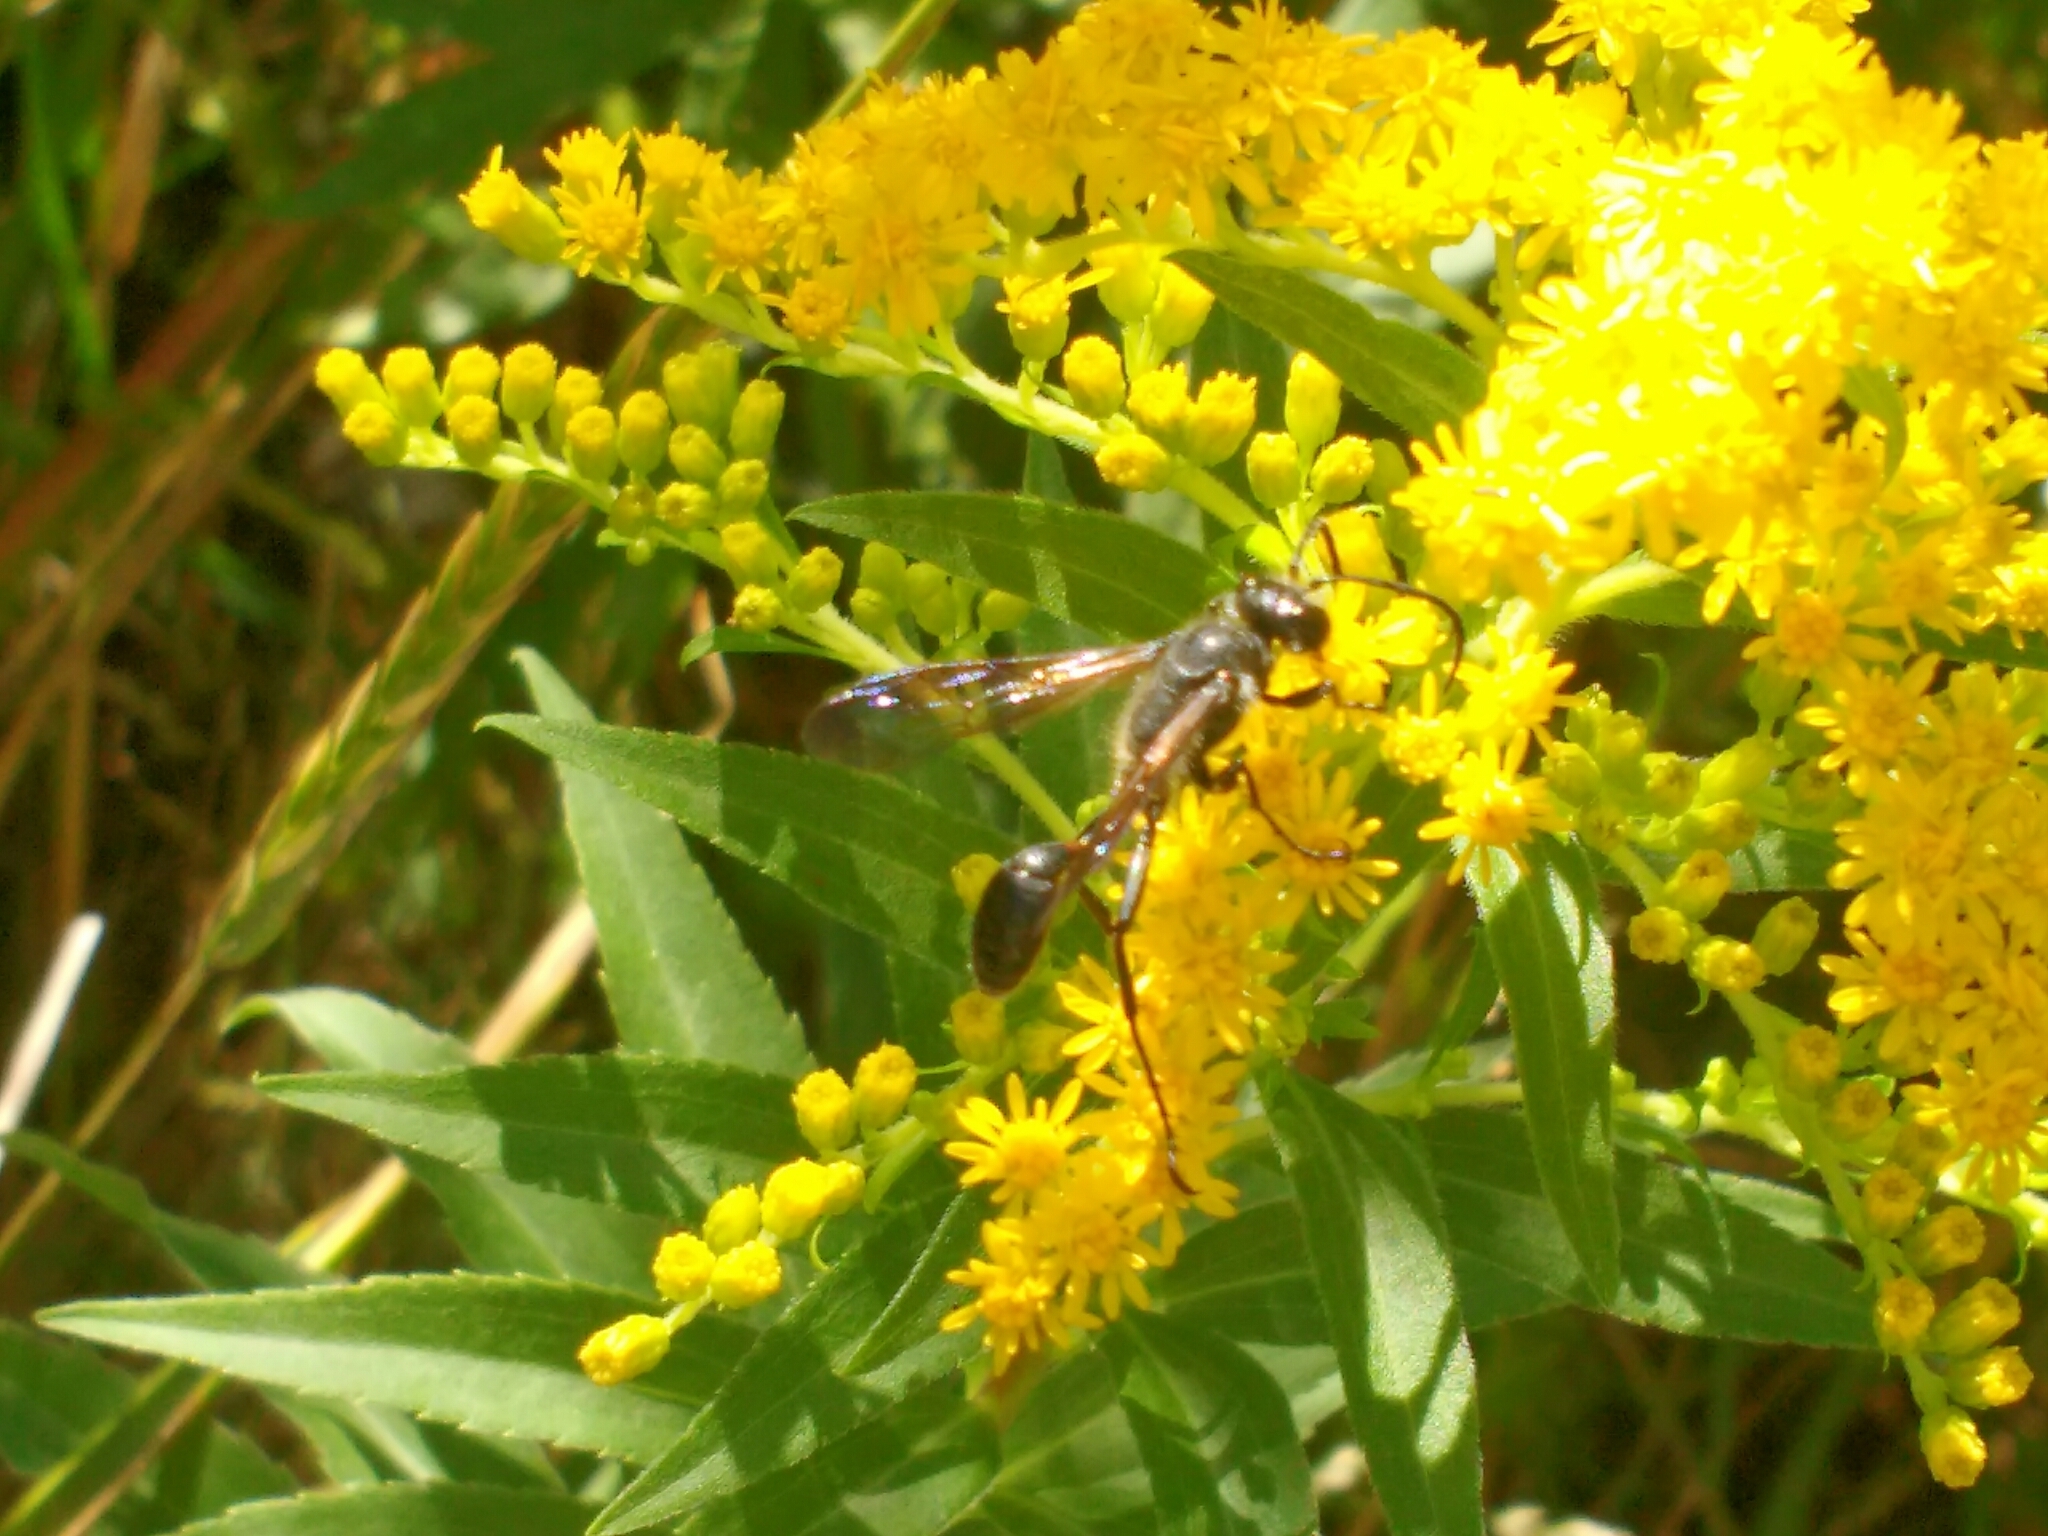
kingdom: Animalia
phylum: Arthropoda
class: Insecta
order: Hymenoptera
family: Sphecidae
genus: Isodontia
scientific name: Isodontia mexicana
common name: Mud dauber
